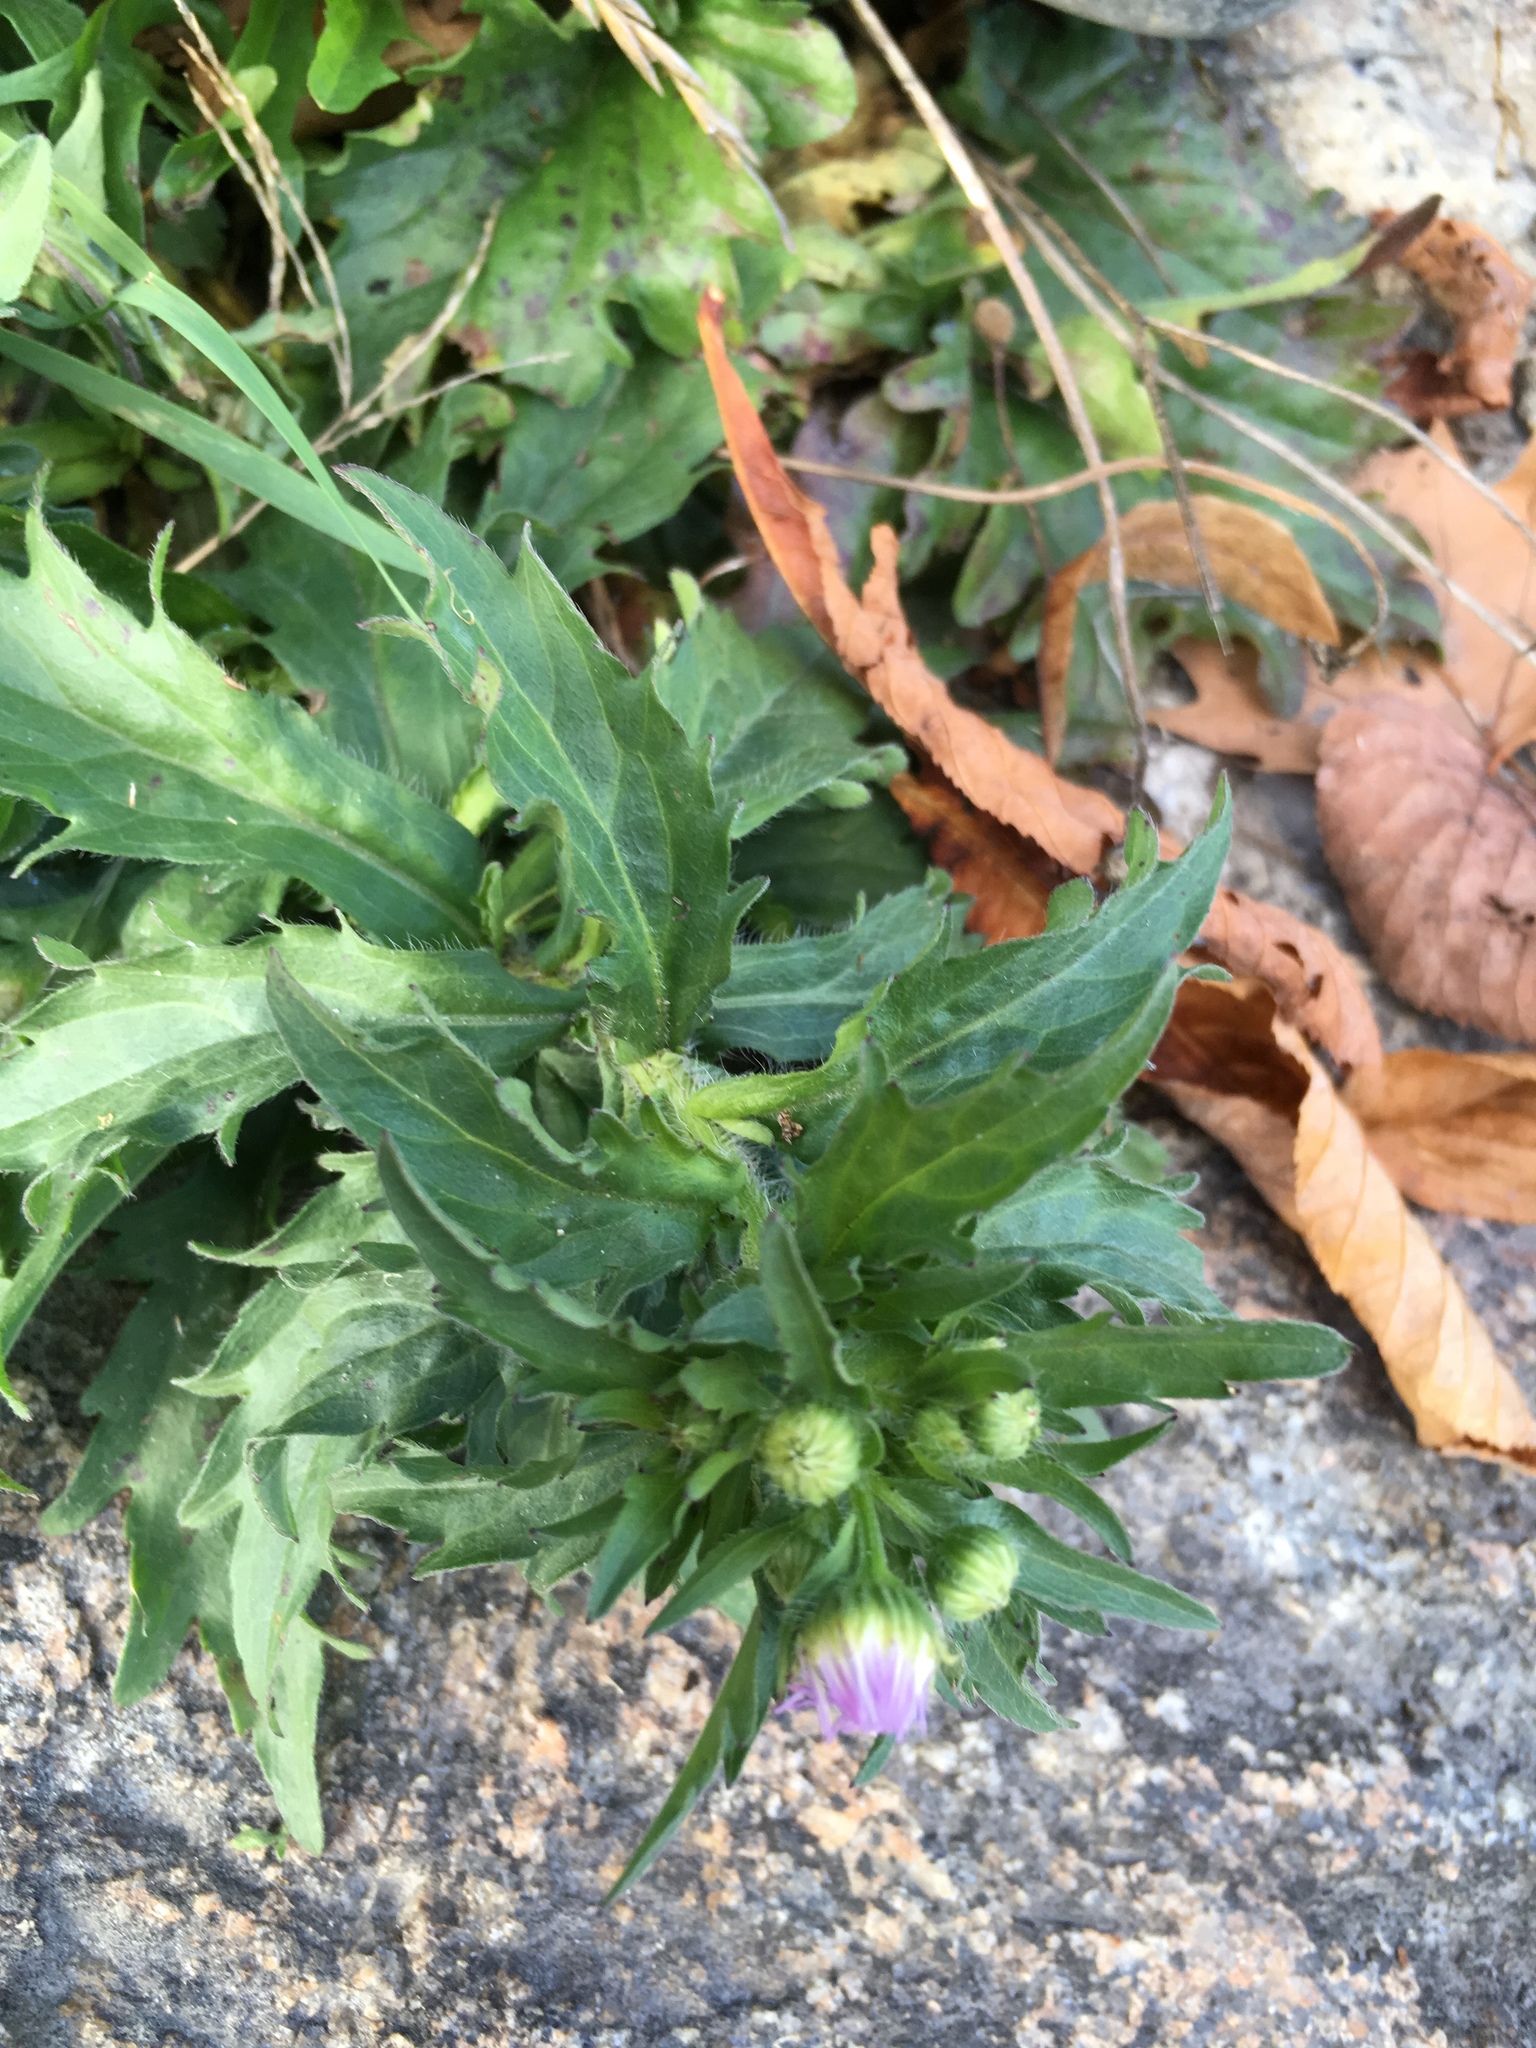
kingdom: Plantae
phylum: Tracheophyta
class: Magnoliopsida
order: Asterales
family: Asteraceae
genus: Erigeron
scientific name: Erigeron annuus
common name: Tall fleabane
